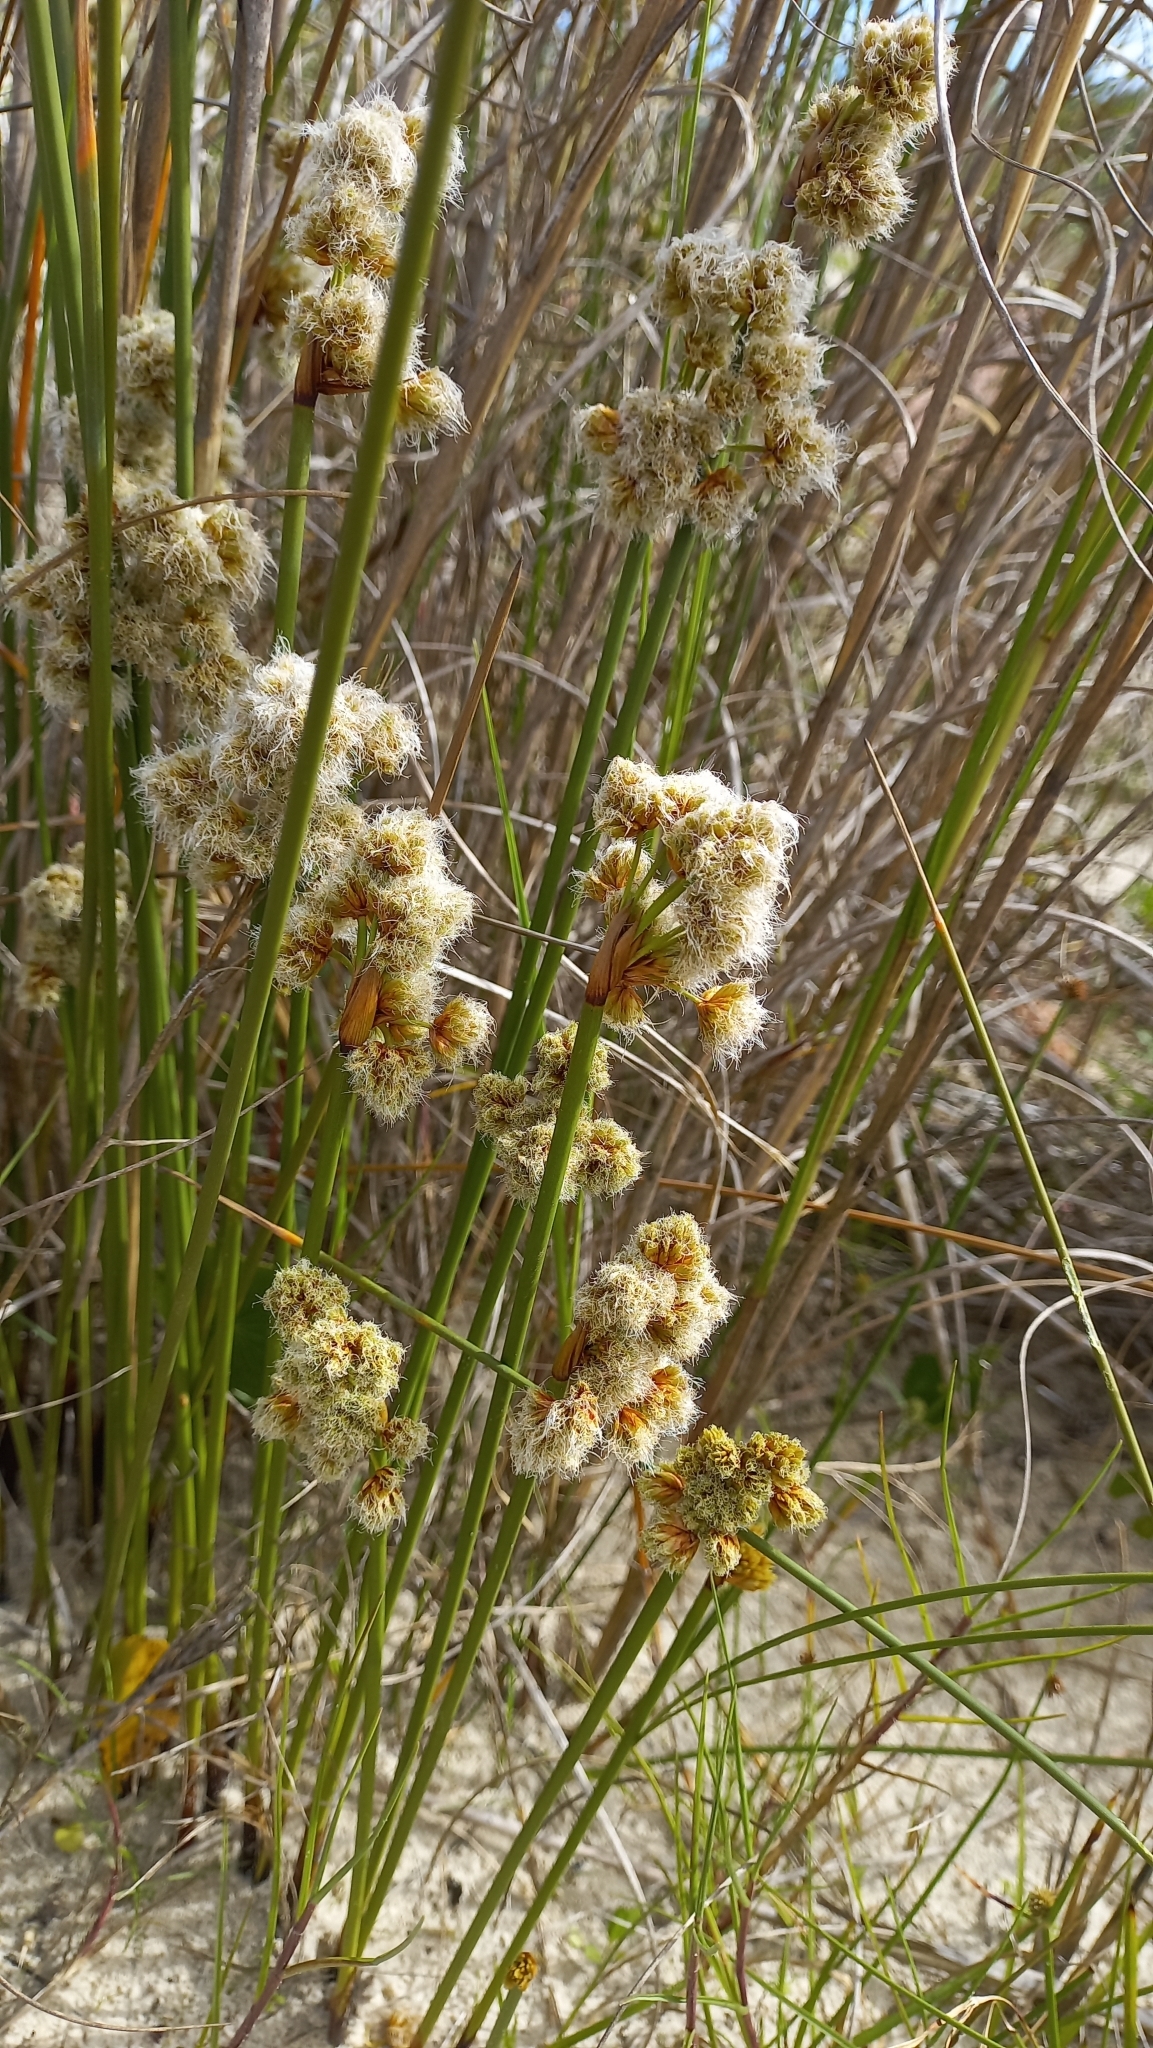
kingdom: Plantae
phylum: Tracheophyta
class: Liliopsida
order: Poales
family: Cyperaceae
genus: Cyperus
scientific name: Cyperus trigynus
